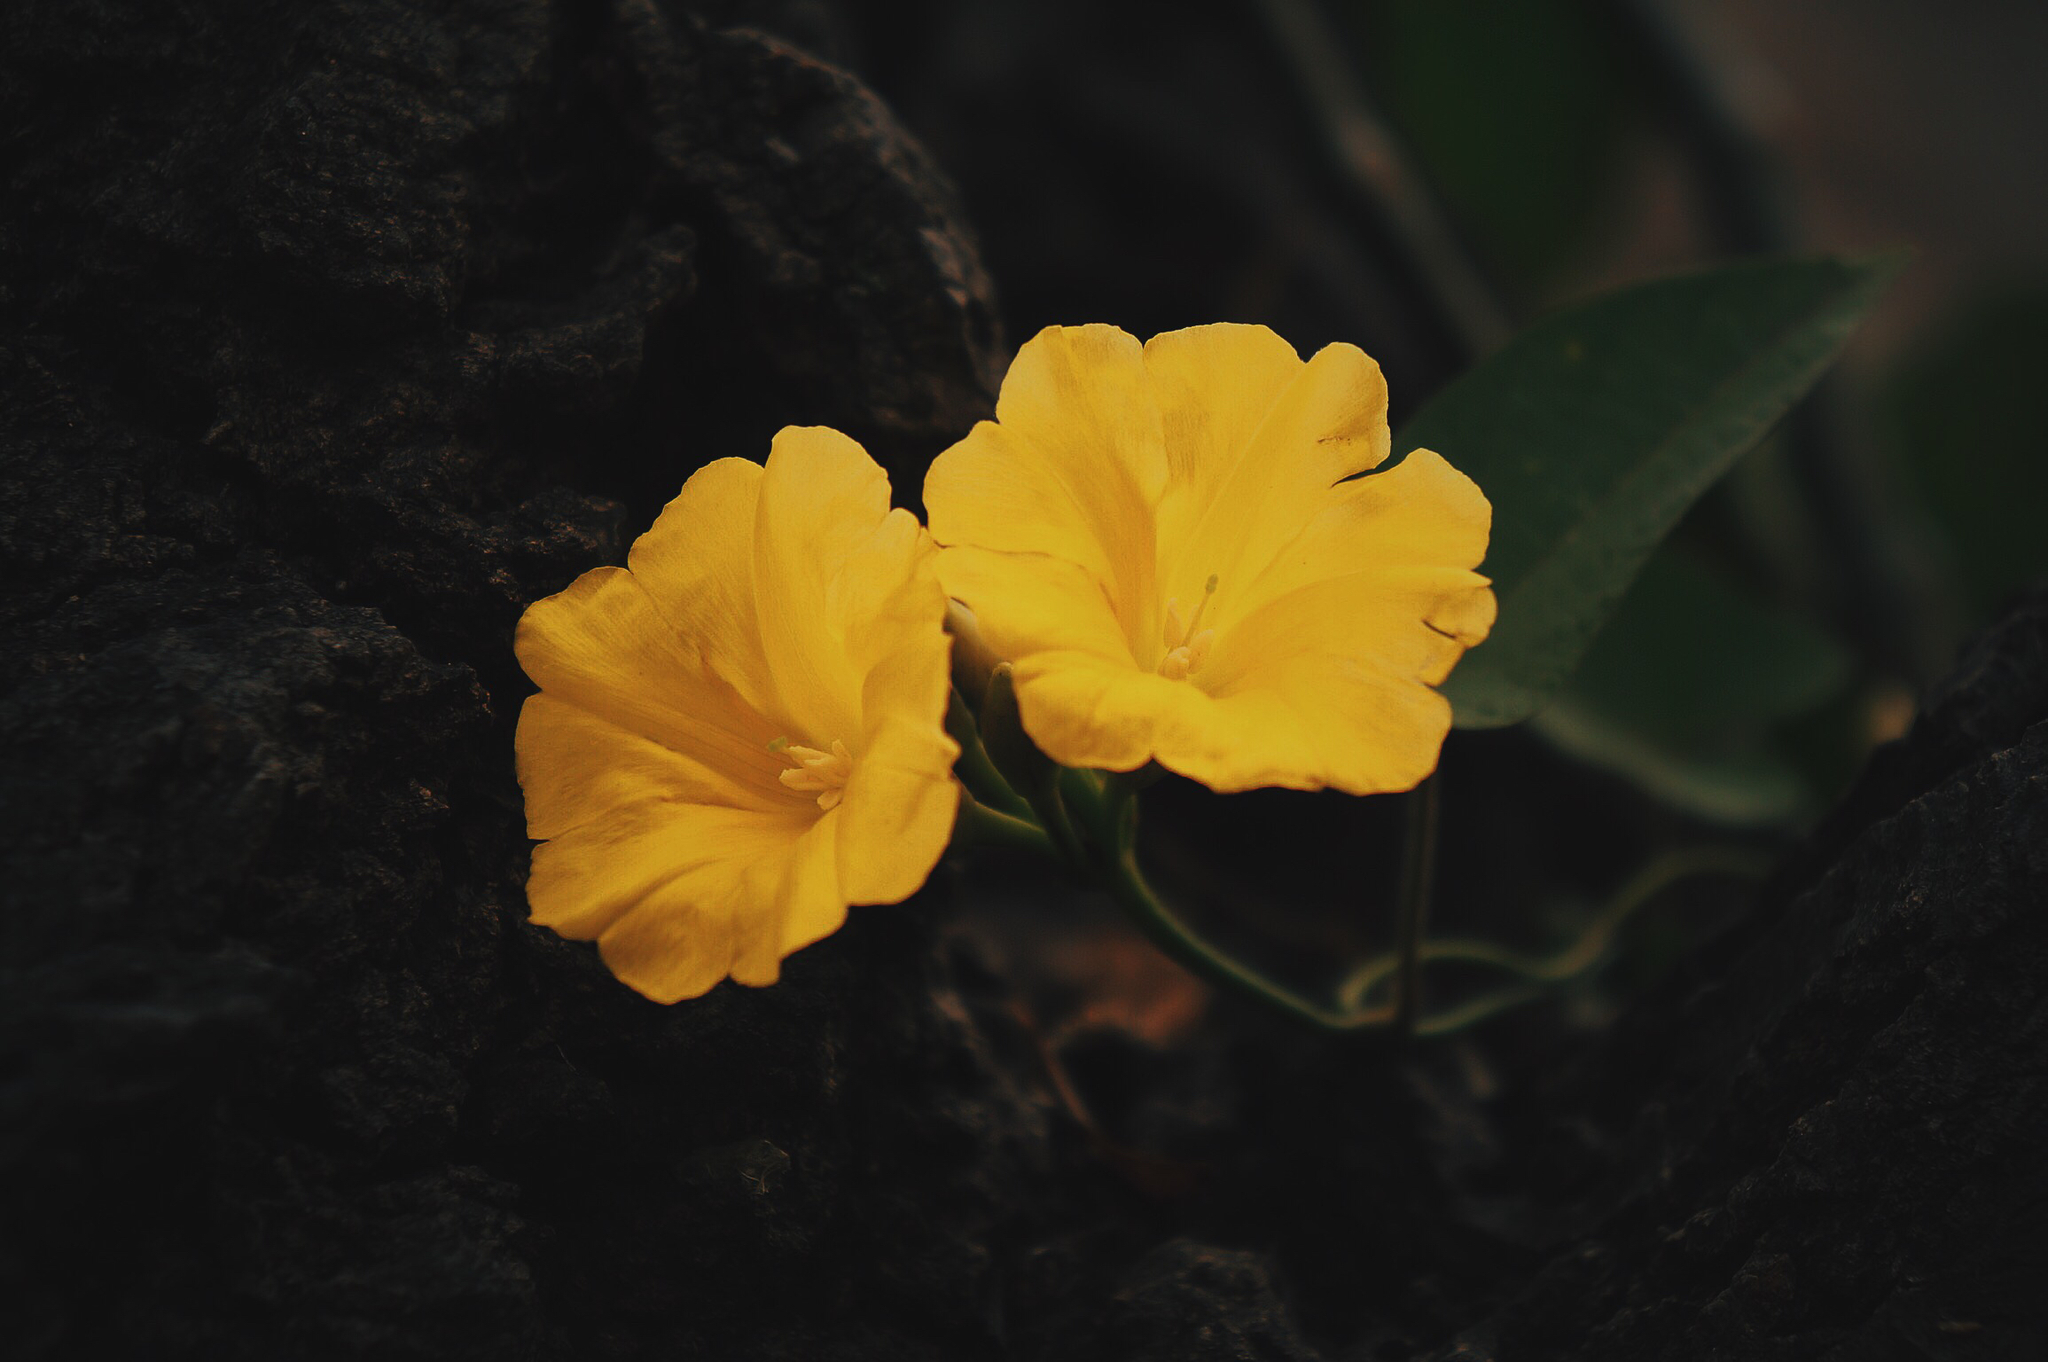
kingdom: Plantae
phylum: Tracheophyta
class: Magnoliopsida
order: Solanales
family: Convolvulaceae
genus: Camonea
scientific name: Camonea umbellata
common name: Hogvine
